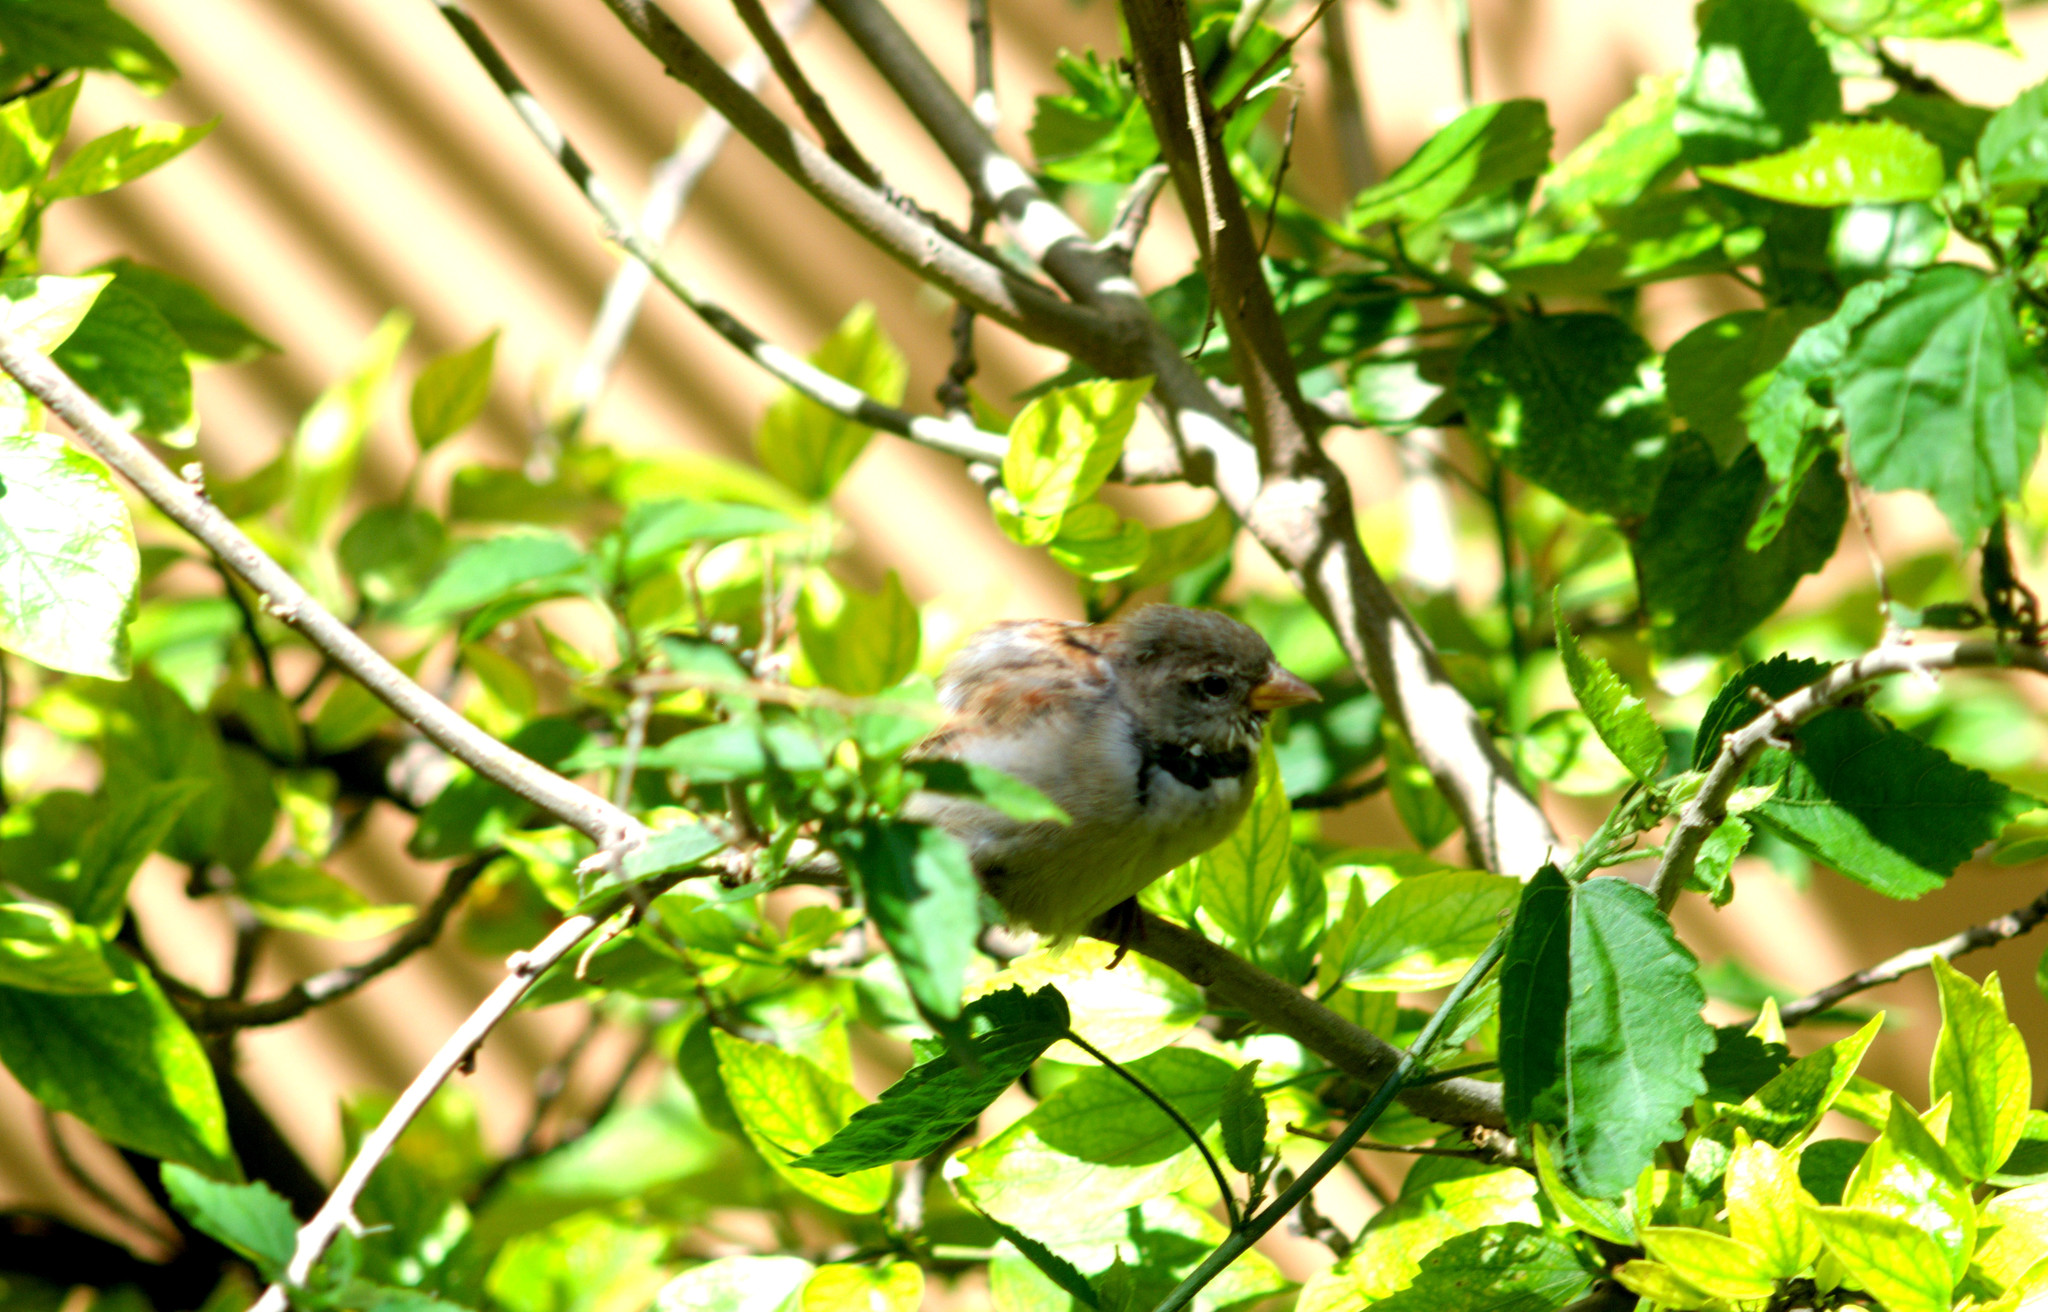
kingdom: Animalia
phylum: Chordata
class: Aves
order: Passeriformes
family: Passeridae
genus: Passer
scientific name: Passer domesticus
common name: House sparrow
